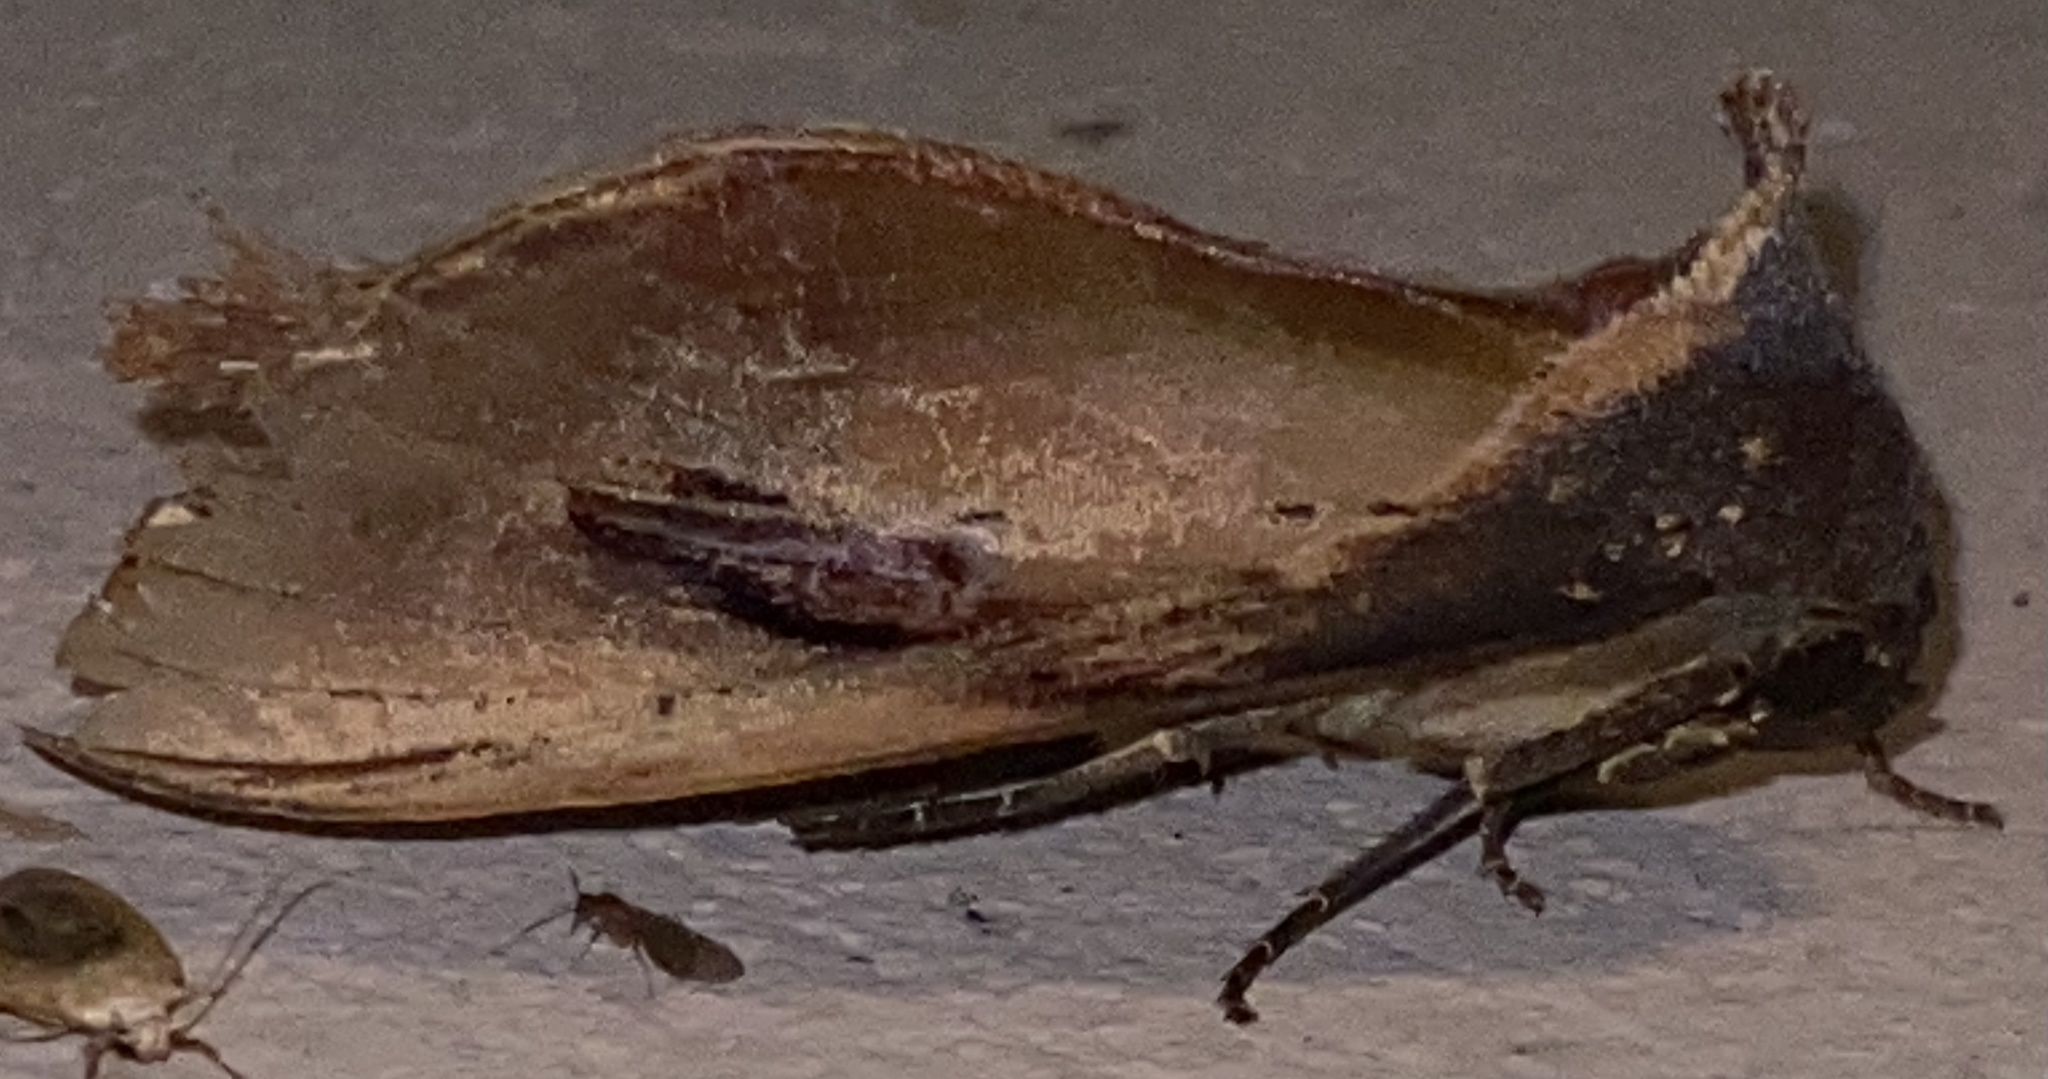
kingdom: Animalia
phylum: Arthropoda
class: Insecta
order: Lepidoptera
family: Notodontidae
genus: Crinodes
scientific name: Crinodes bellatrix
